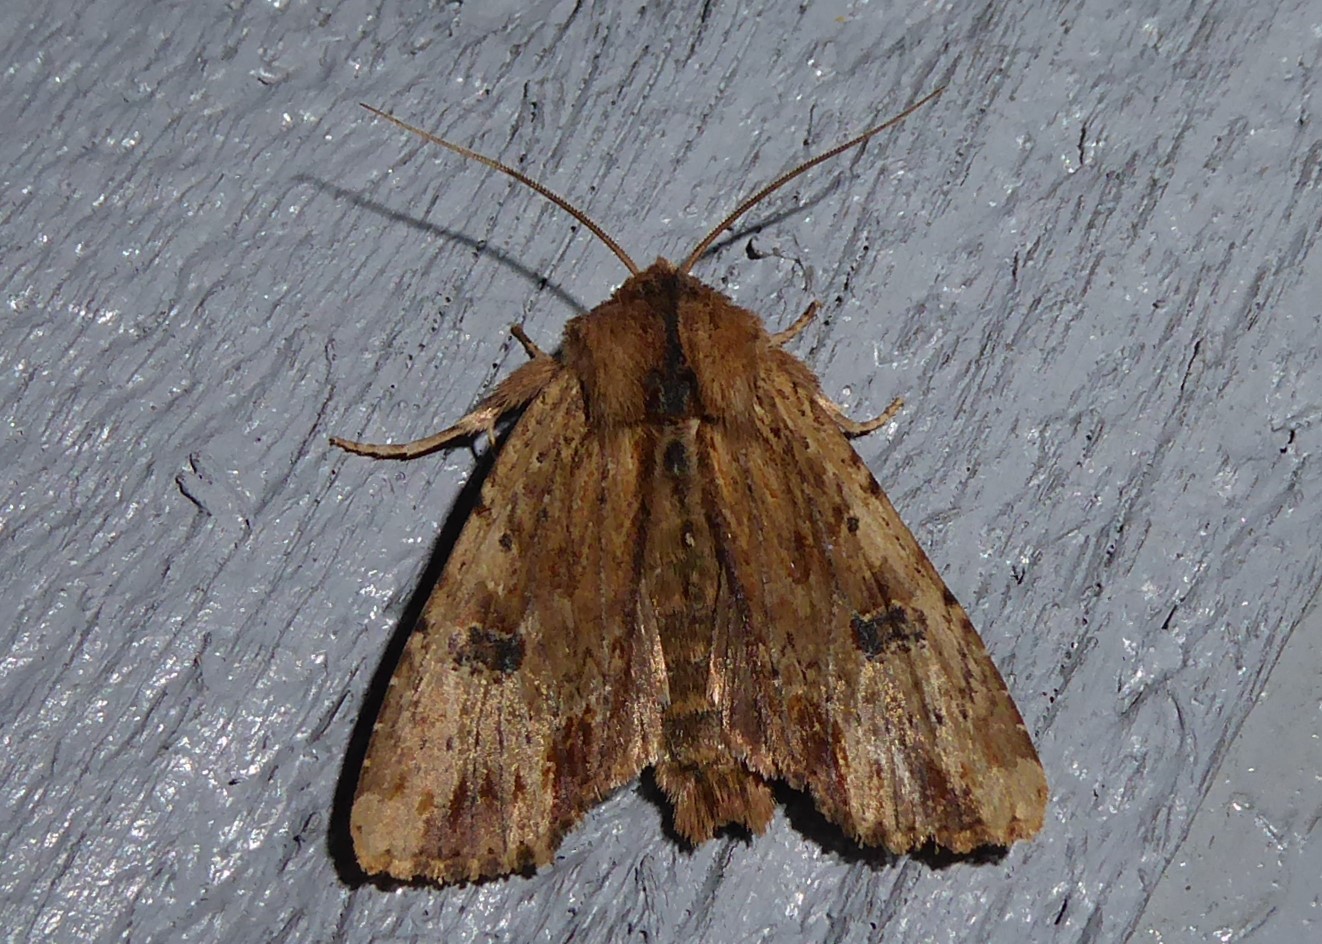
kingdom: Animalia
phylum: Arthropoda
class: Insecta
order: Lepidoptera
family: Noctuidae
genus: Ichneutica
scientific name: Ichneutica
